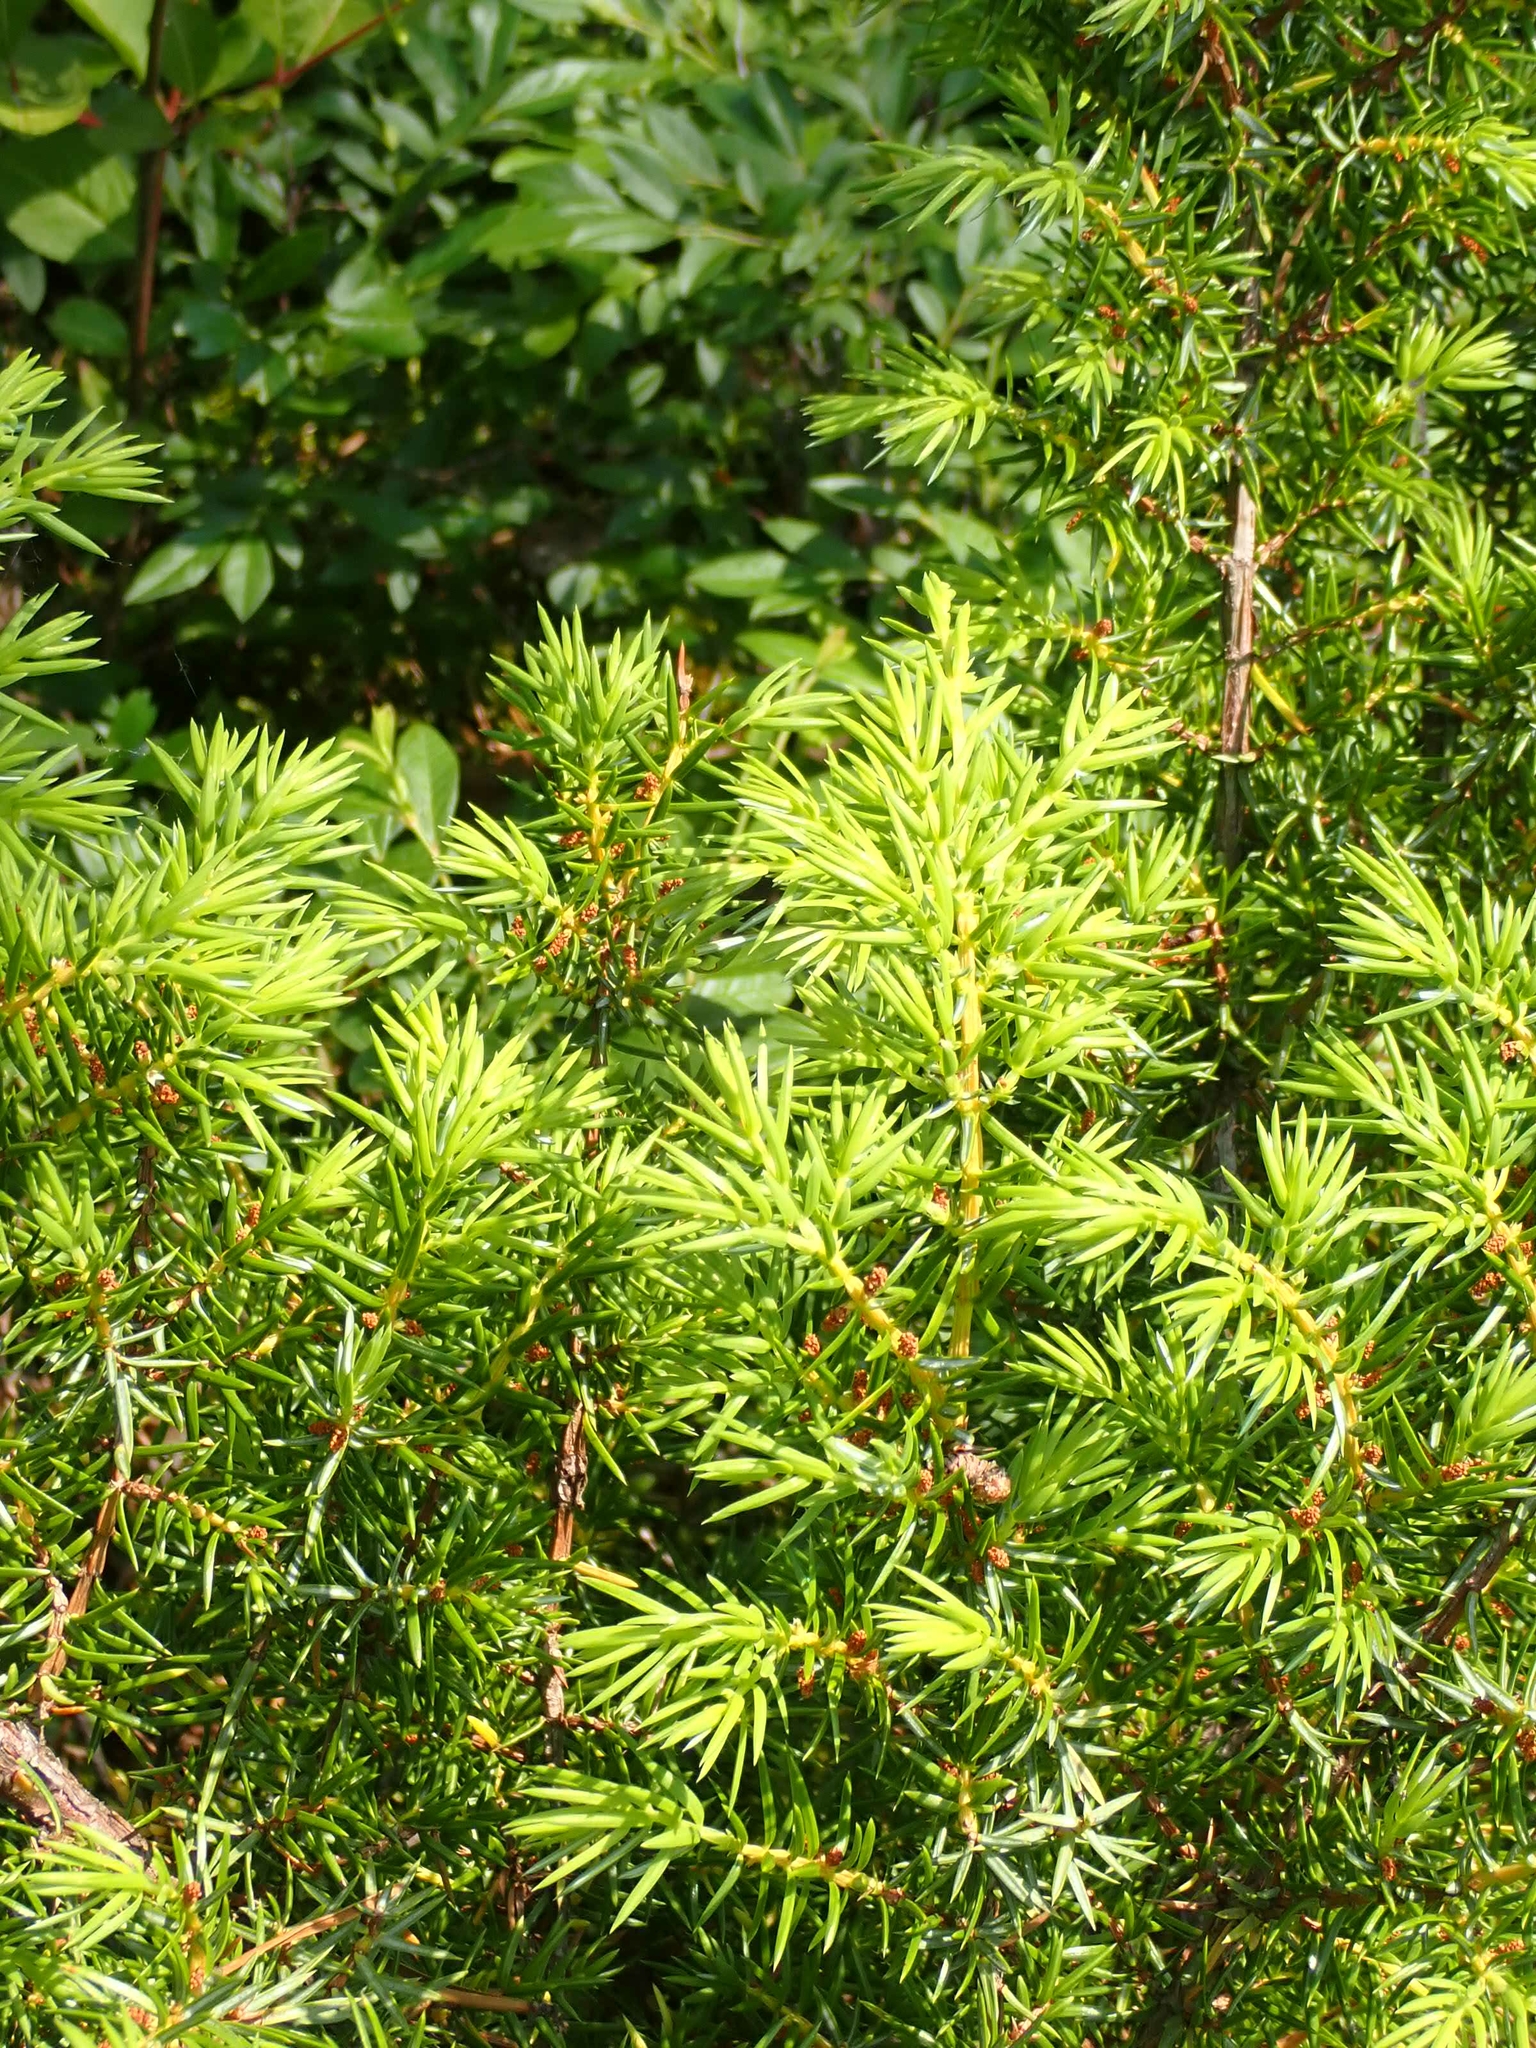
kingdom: Plantae
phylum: Tracheophyta
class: Pinopsida
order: Pinales
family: Cupressaceae
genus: Juniperus
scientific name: Juniperus communis
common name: Common juniper
